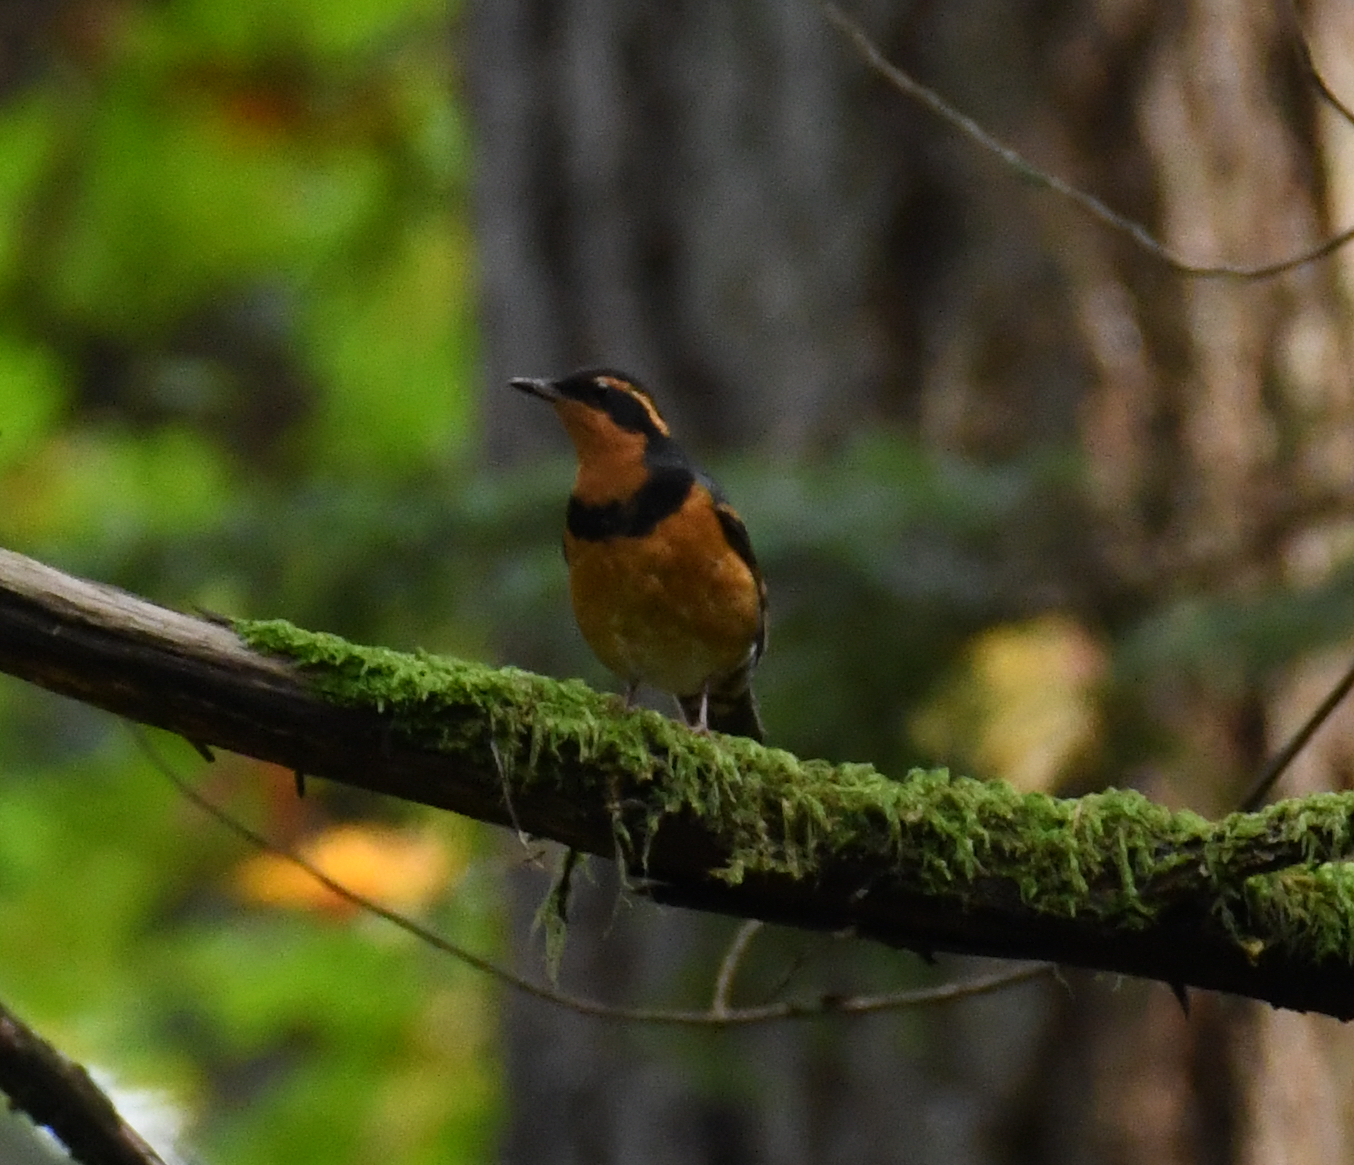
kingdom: Animalia
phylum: Chordata
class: Aves
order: Passeriformes
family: Turdidae
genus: Ixoreus
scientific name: Ixoreus naevius
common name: Varied thrush
